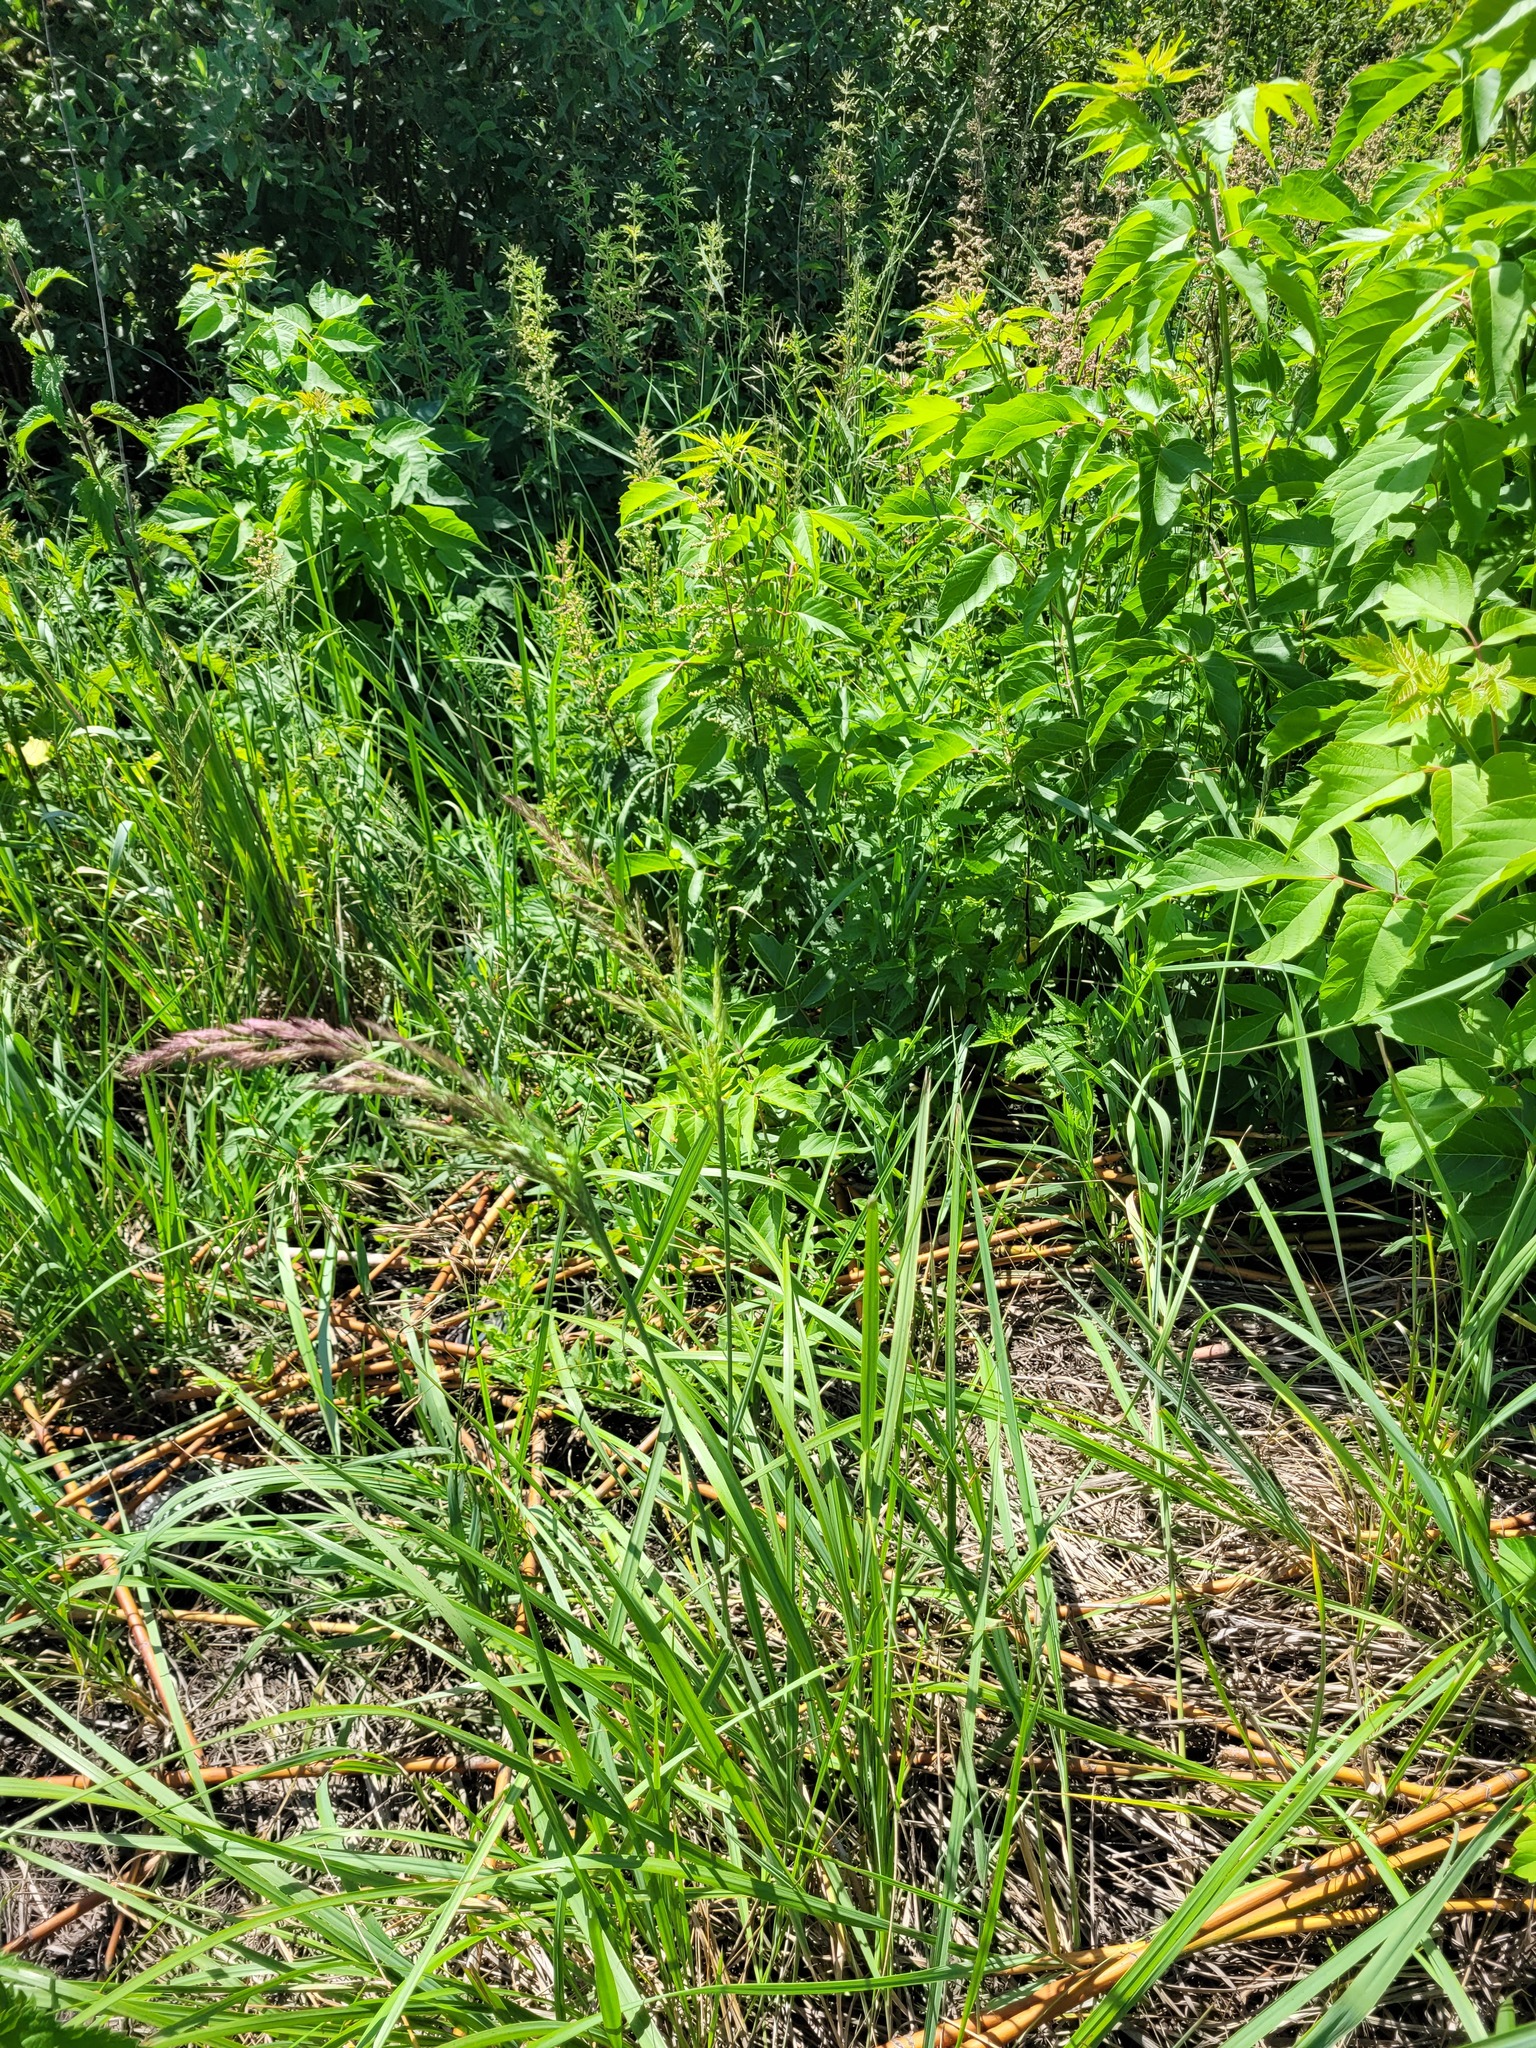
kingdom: Plantae
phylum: Tracheophyta
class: Liliopsida
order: Poales
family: Poaceae
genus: Calamagrostis
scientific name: Calamagrostis epigejos
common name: Wood small-reed
